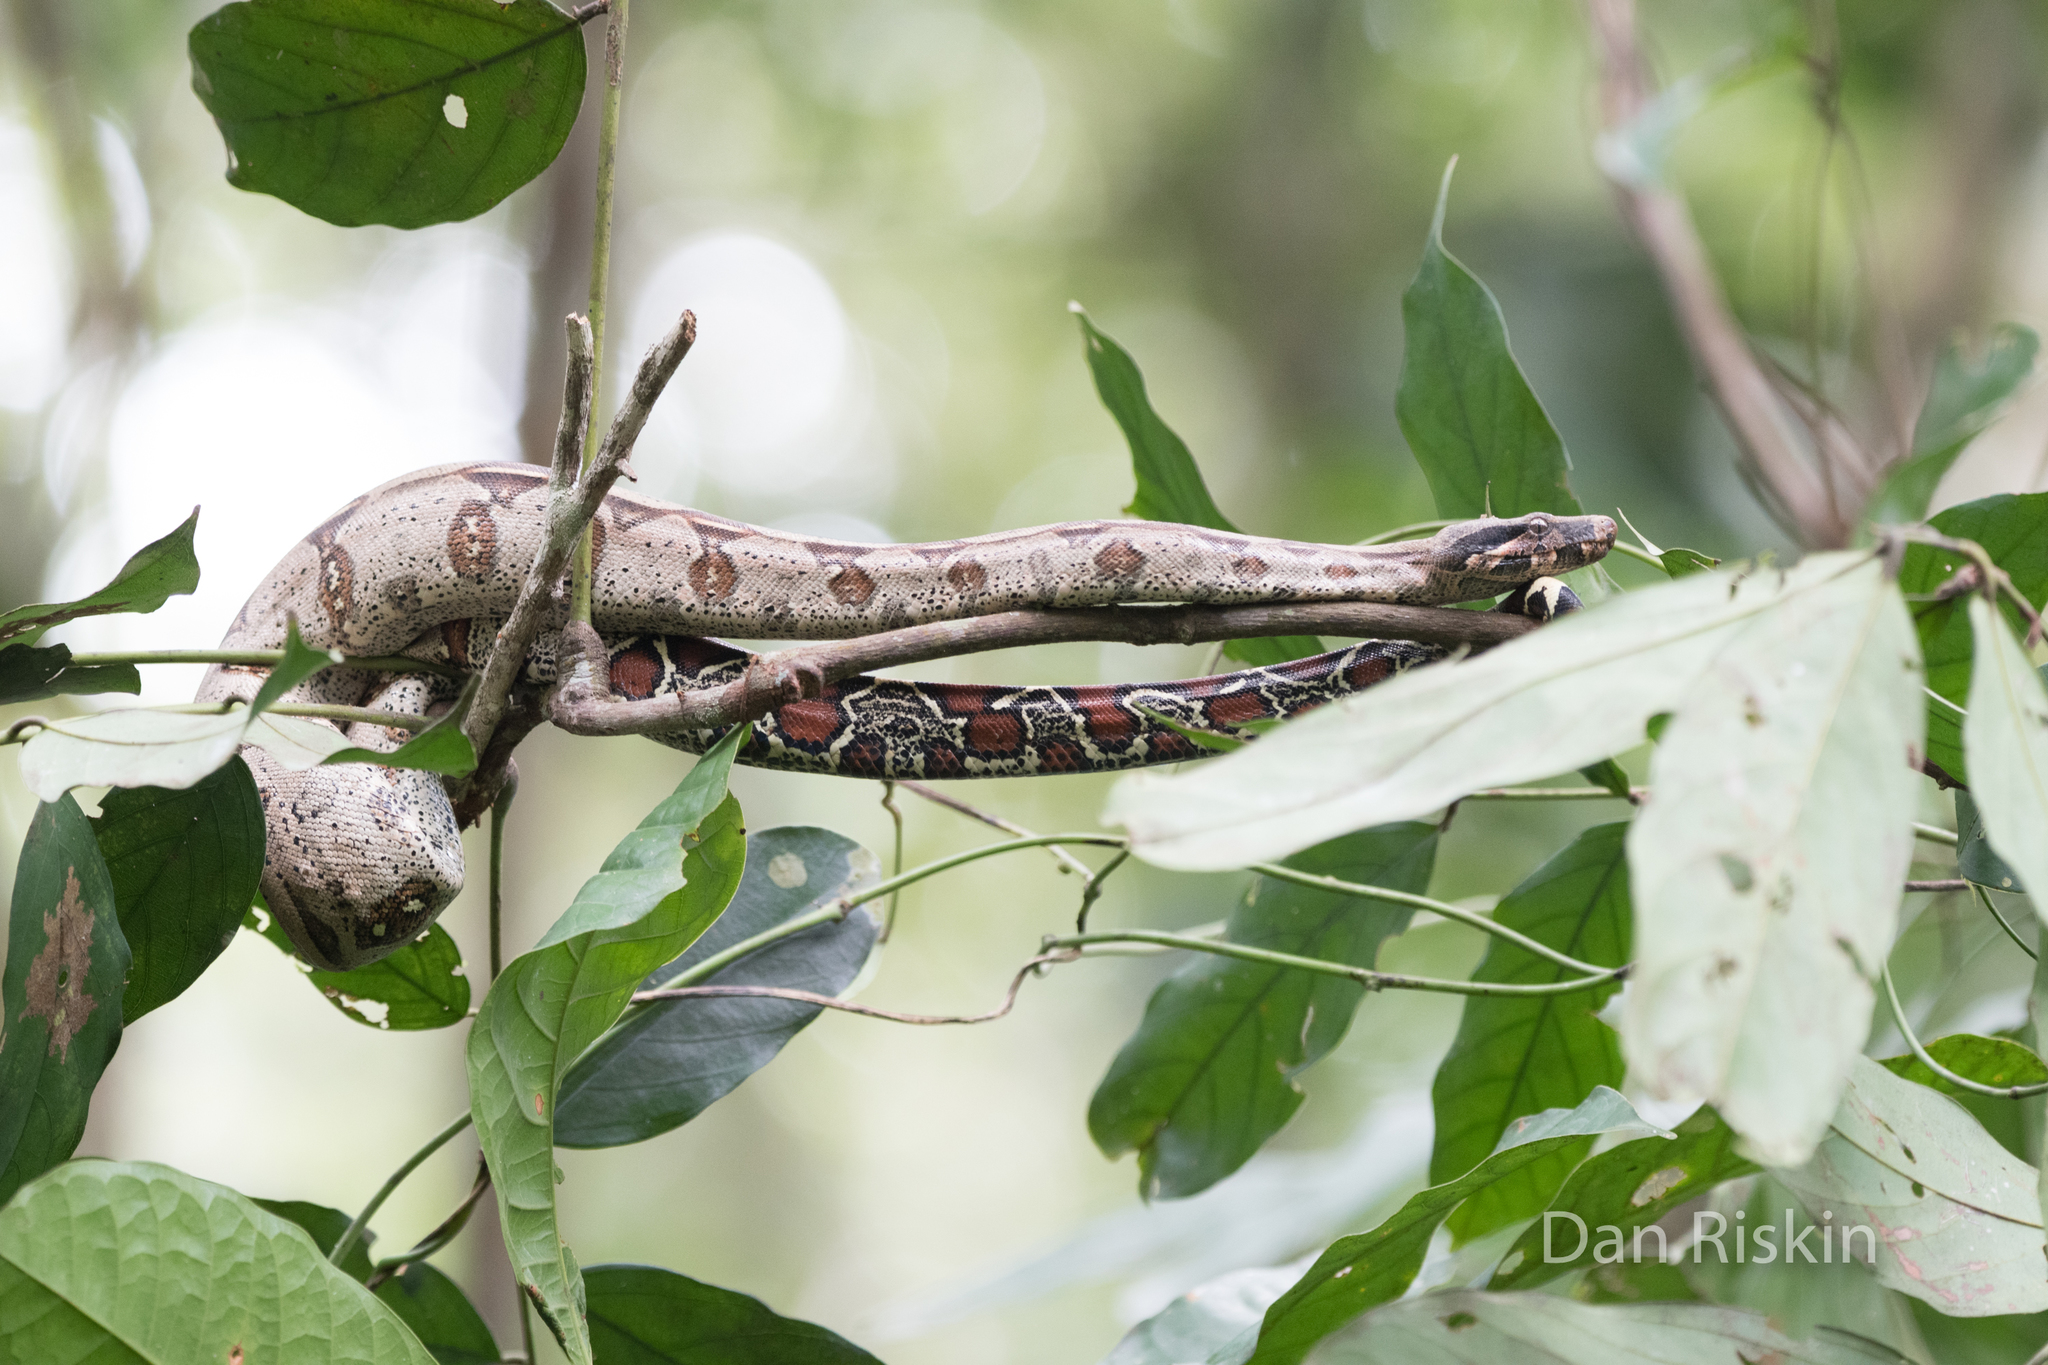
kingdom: Animalia
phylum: Chordata
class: Squamata
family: Boidae
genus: Boa
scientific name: Boa constrictor
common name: Boa constrictor
